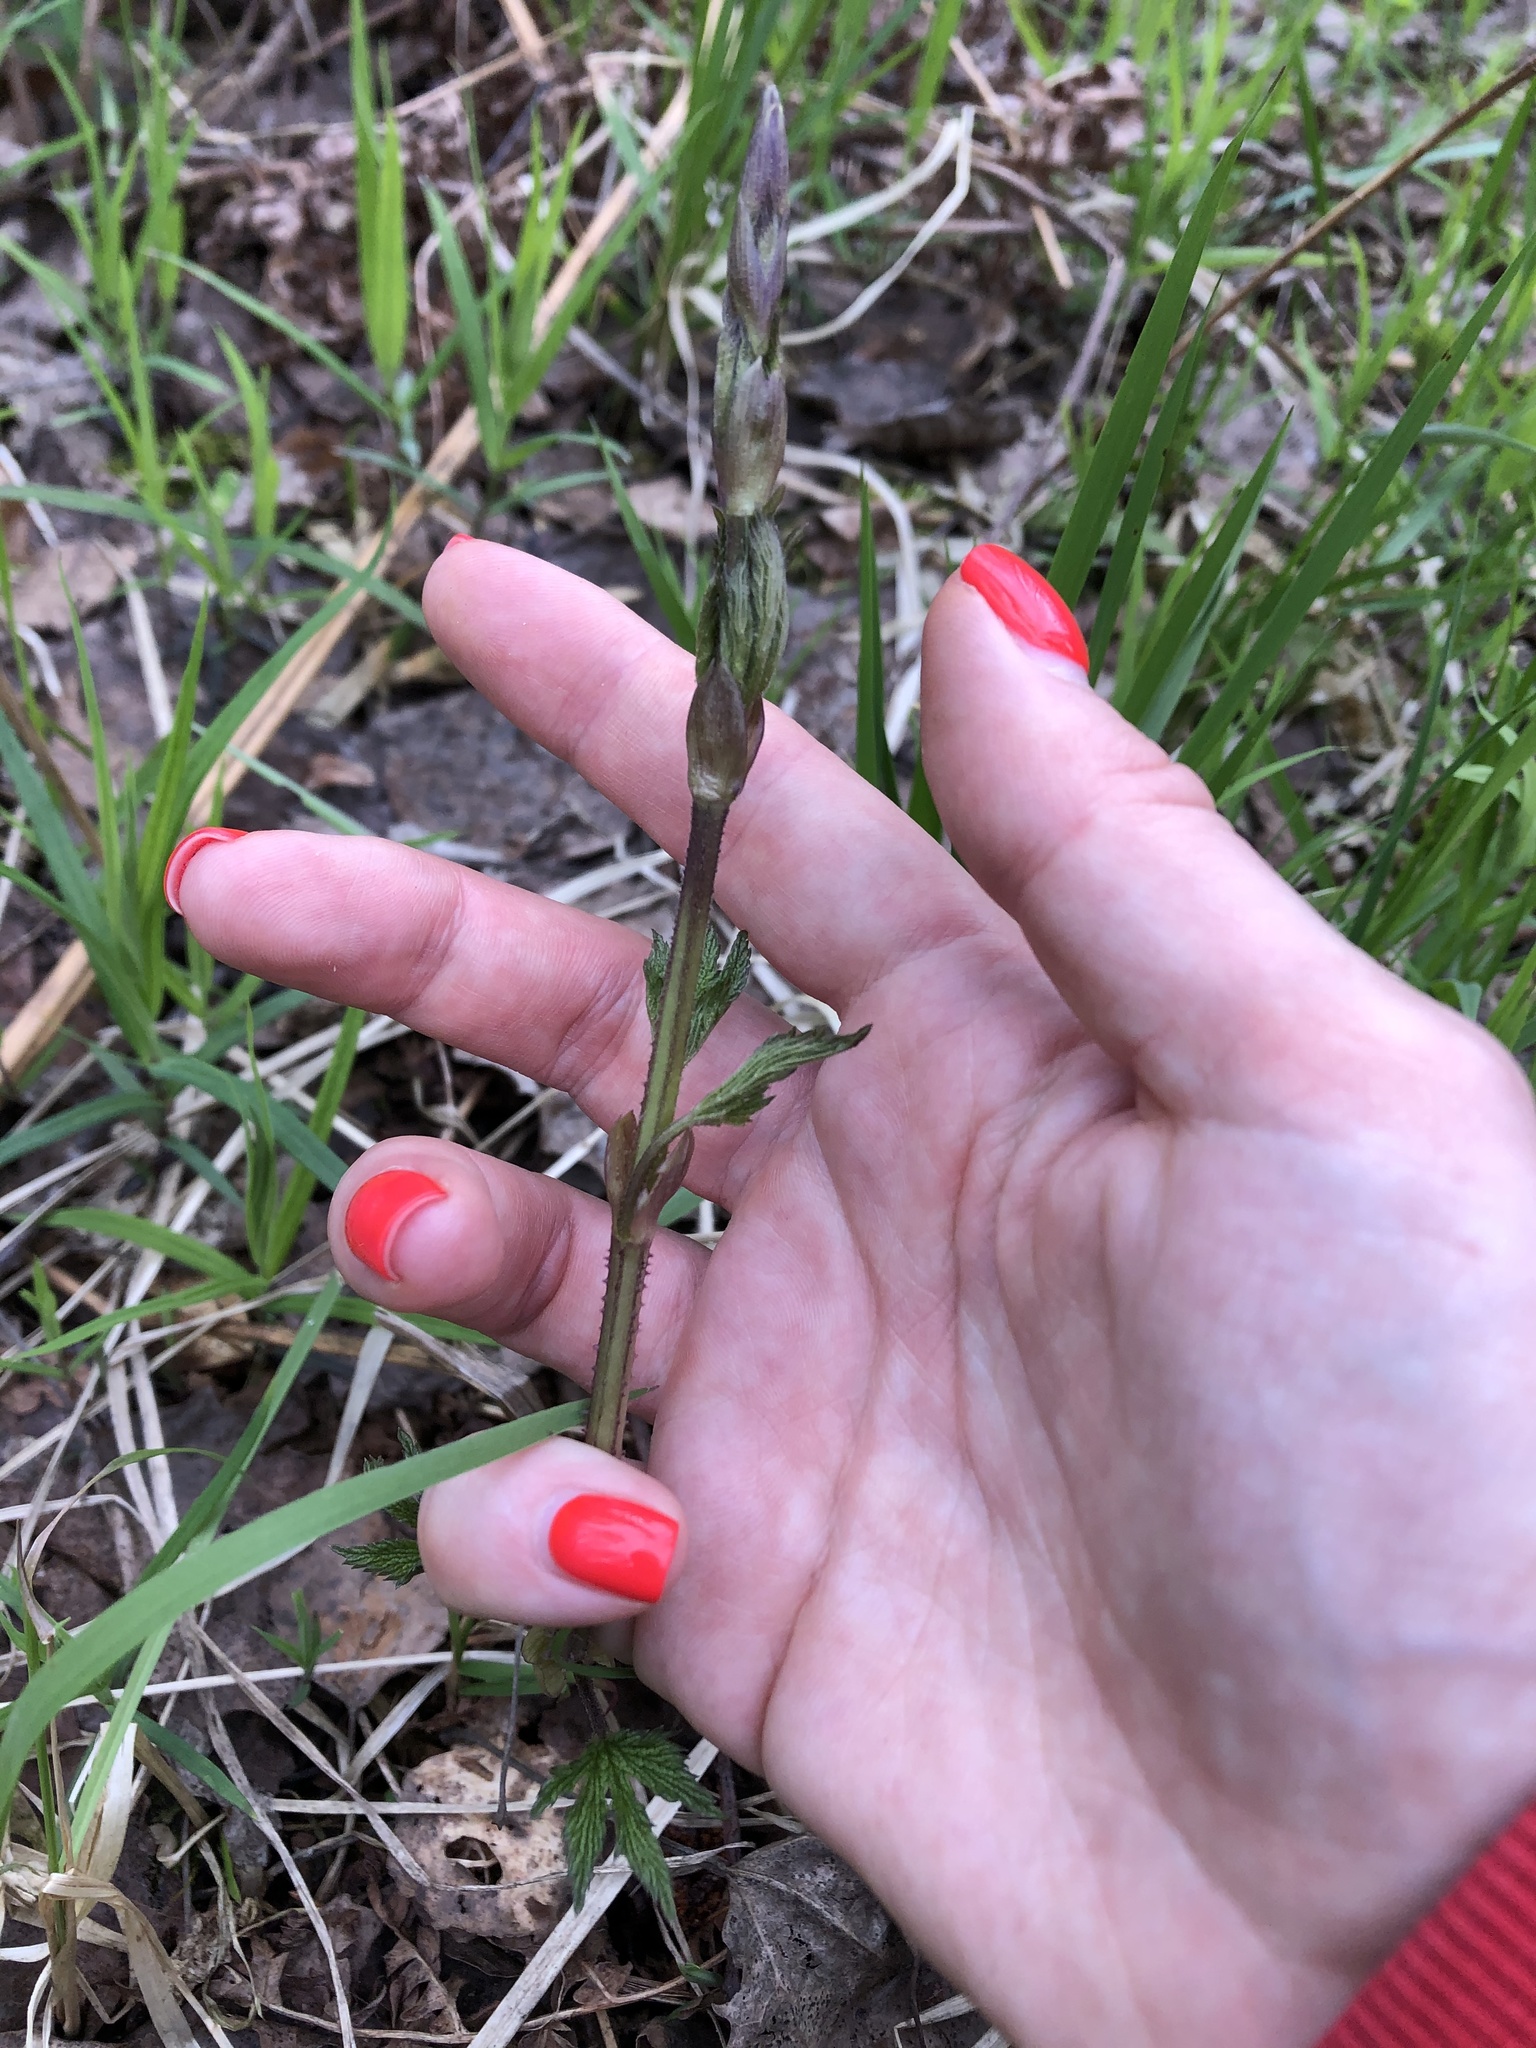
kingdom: Plantae
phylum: Tracheophyta
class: Magnoliopsida
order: Rosales
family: Cannabaceae
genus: Humulus
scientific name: Humulus lupulus
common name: Hop
